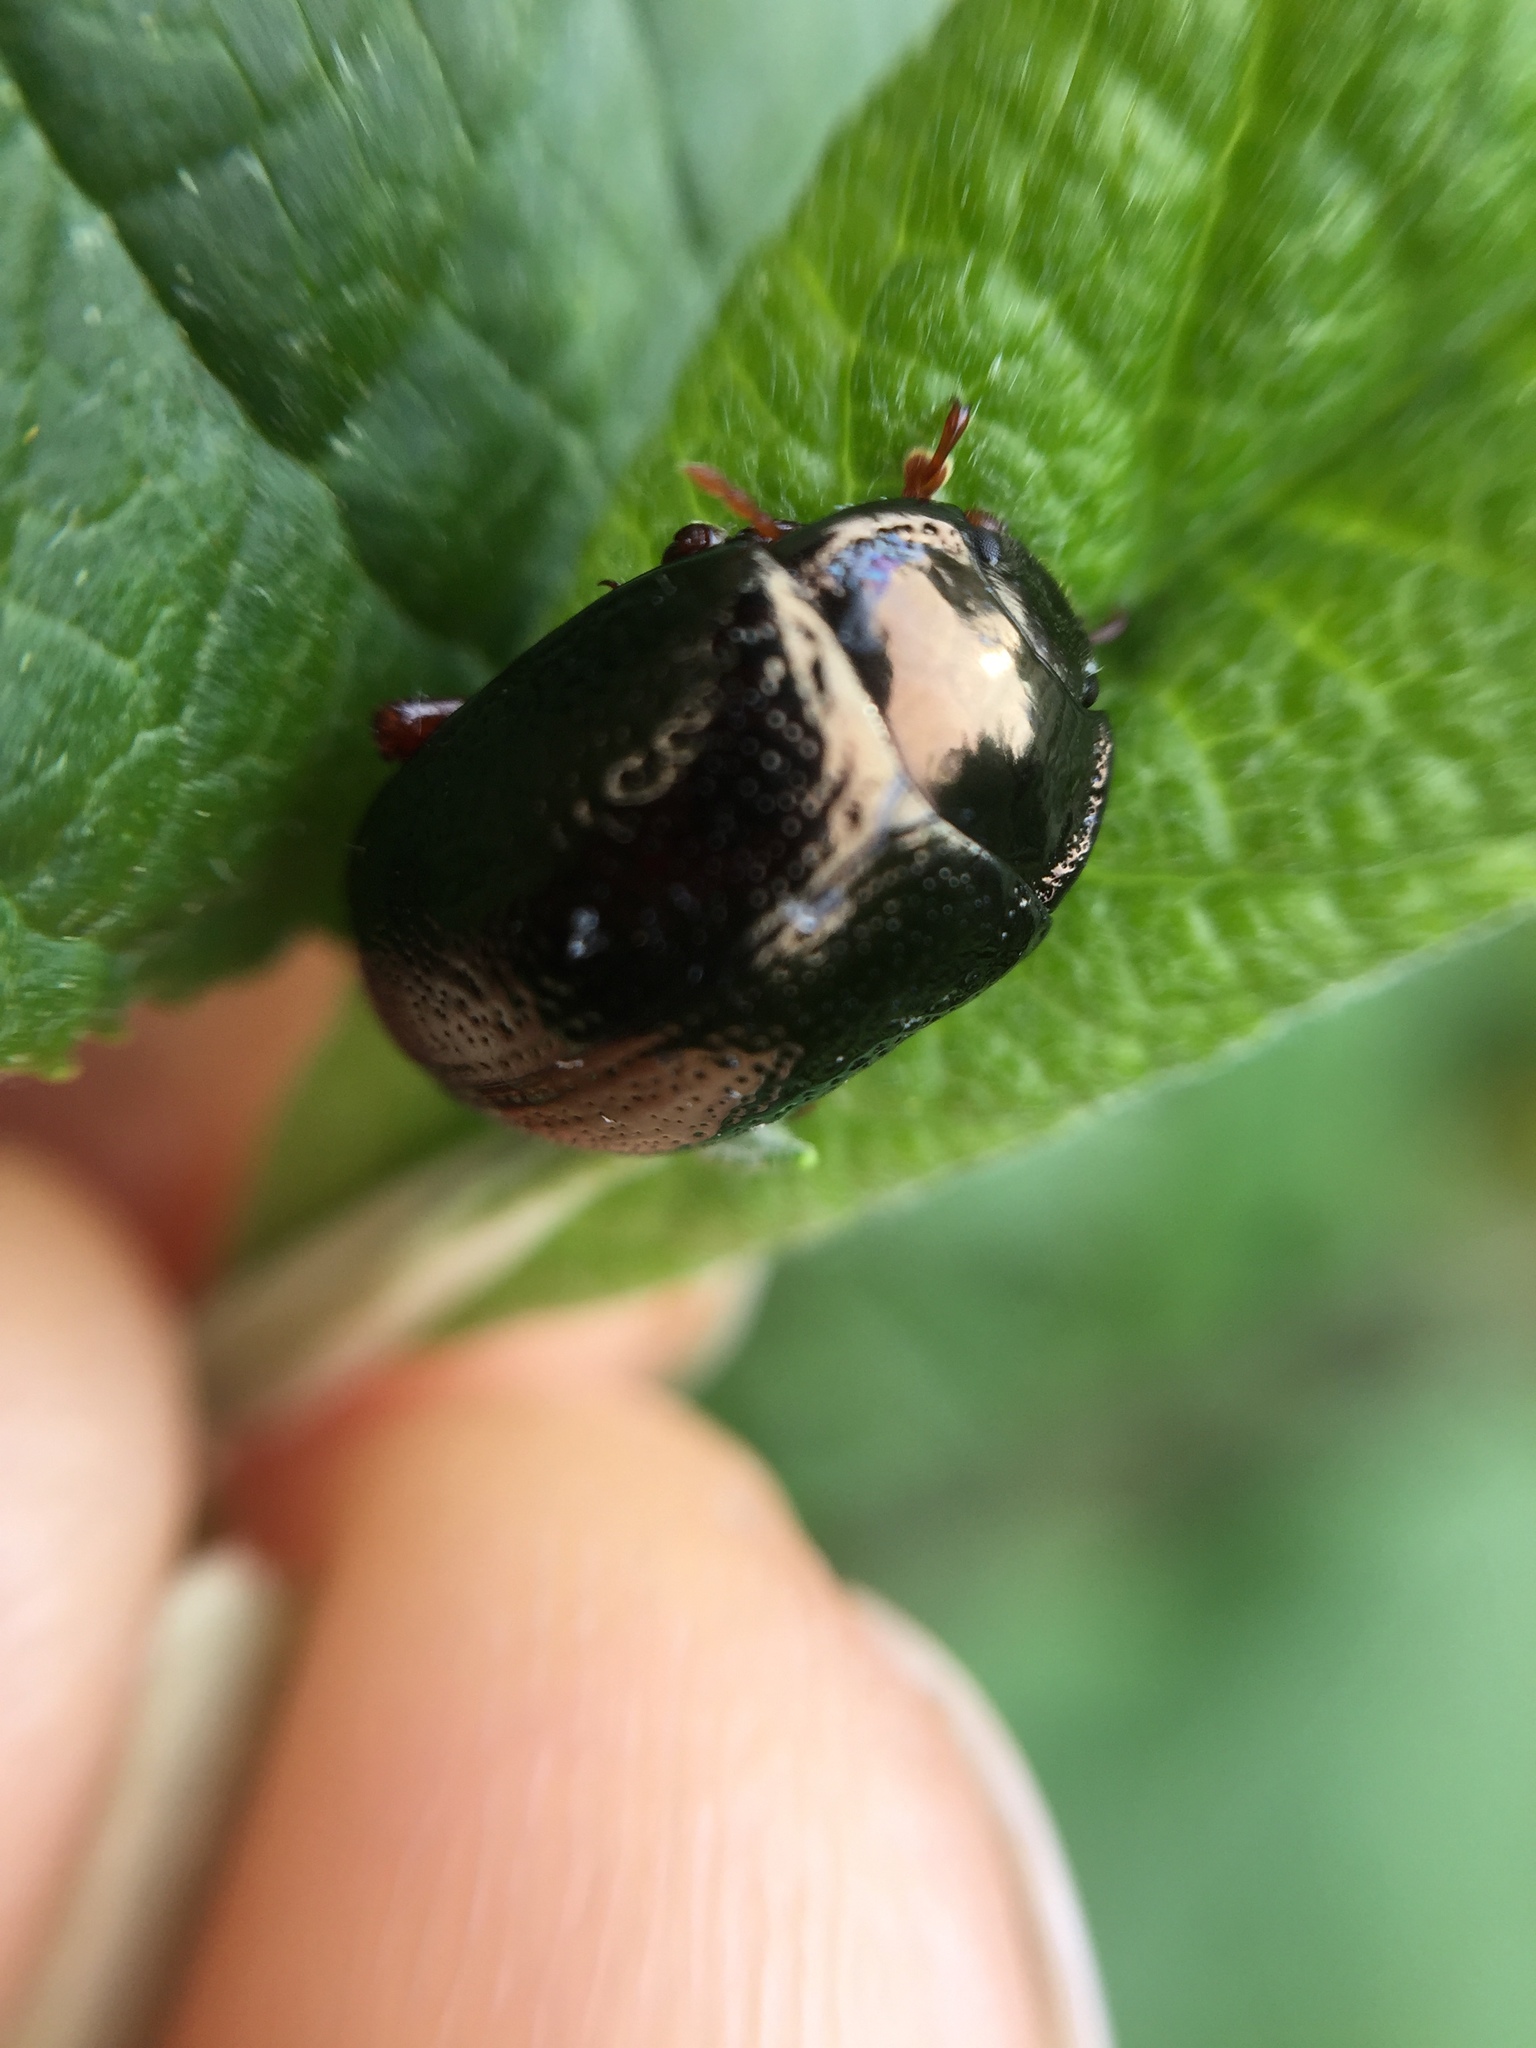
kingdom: Animalia
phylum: Arthropoda
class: Insecta
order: Coleoptera
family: Chrysomelidae
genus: Chrysolina
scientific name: Chrysolina bankii
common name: Leaf beetle
